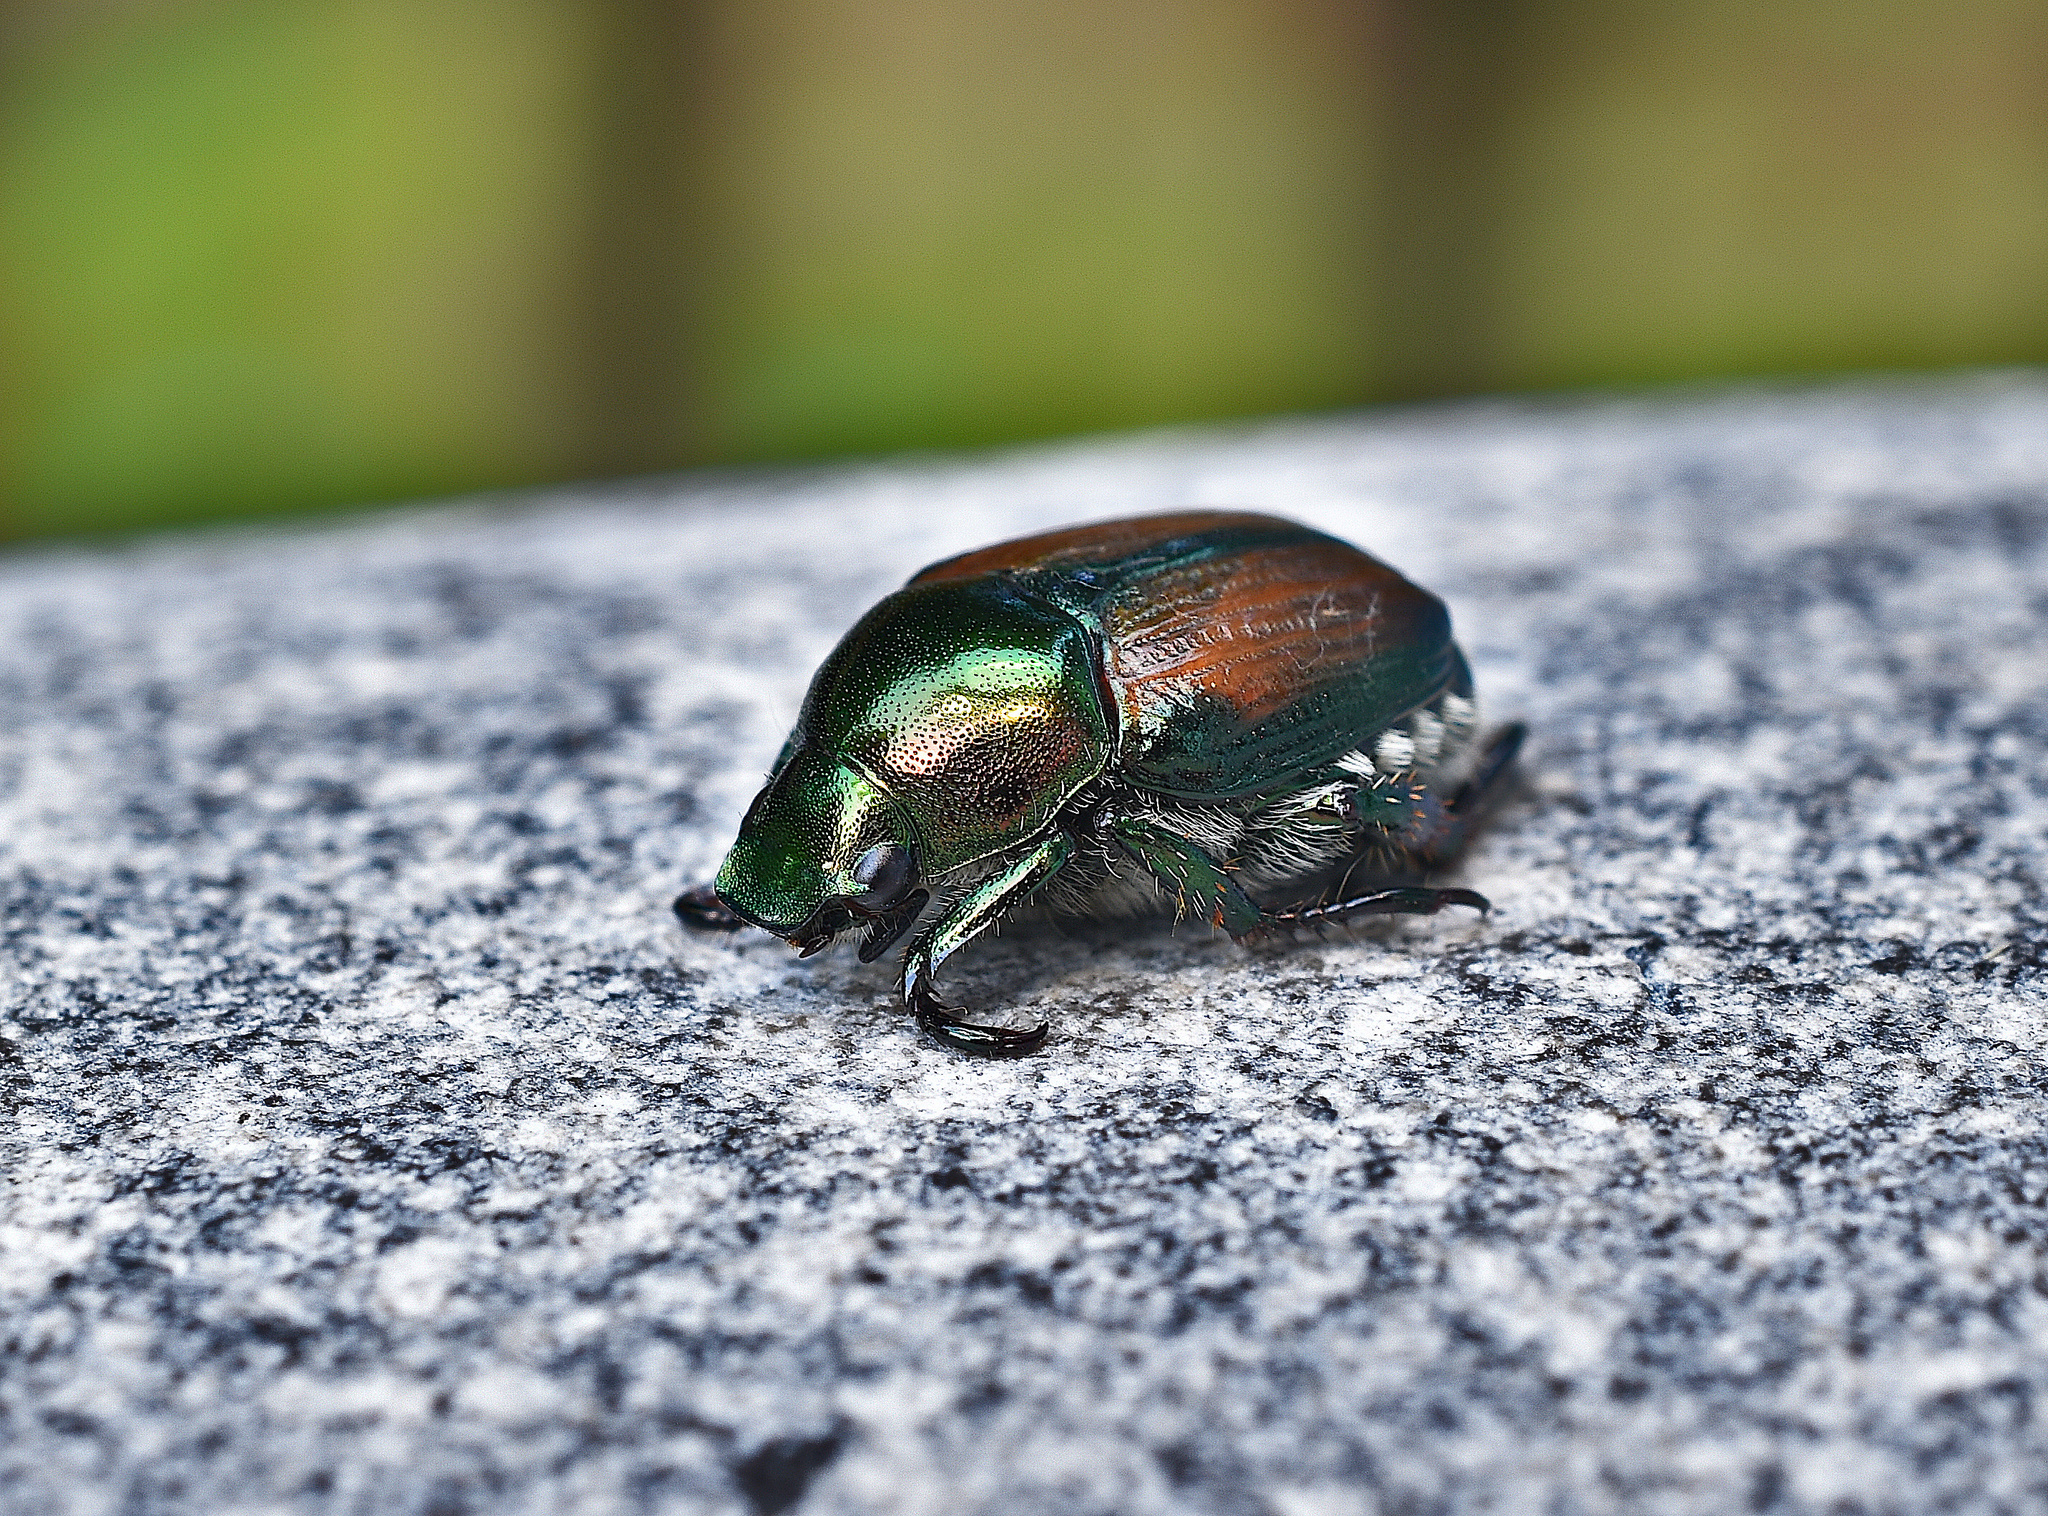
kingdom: Animalia
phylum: Arthropoda
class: Insecta
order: Coleoptera
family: Scarabaeidae
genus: Popillia
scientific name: Popillia japonica
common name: Japanese beetle
